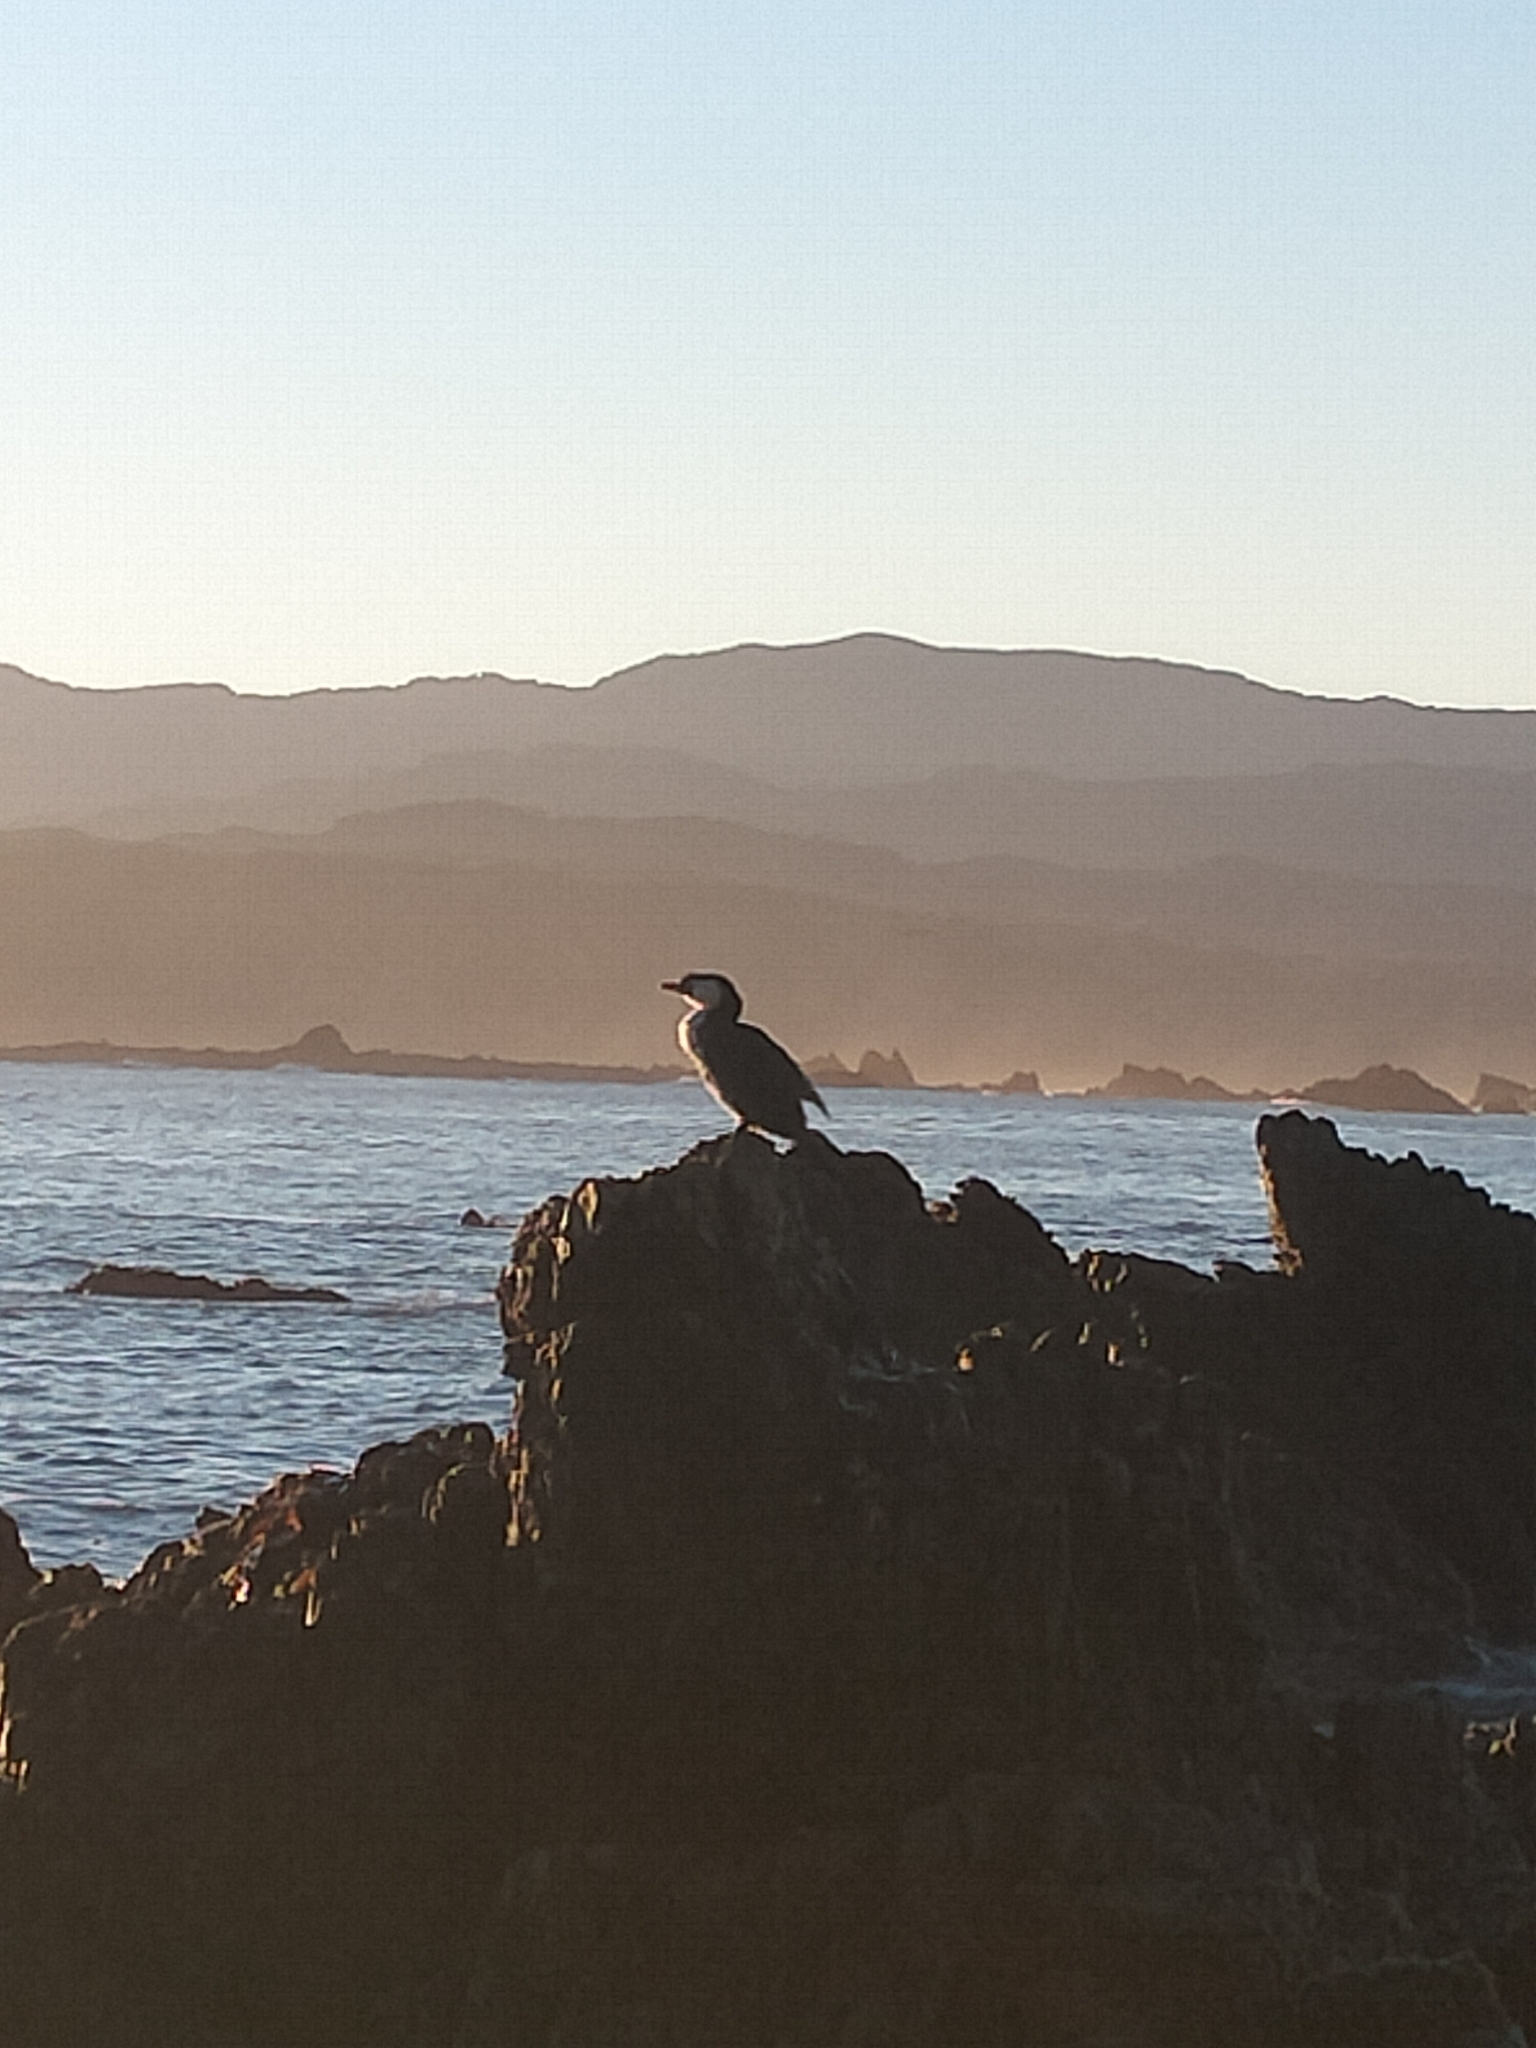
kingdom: Animalia
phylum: Chordata
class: Aves
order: Suliformes
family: Phalacrocoracidae
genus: Microcarbo
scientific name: Microcarbo melanoleucos
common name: Little pied cormorant
